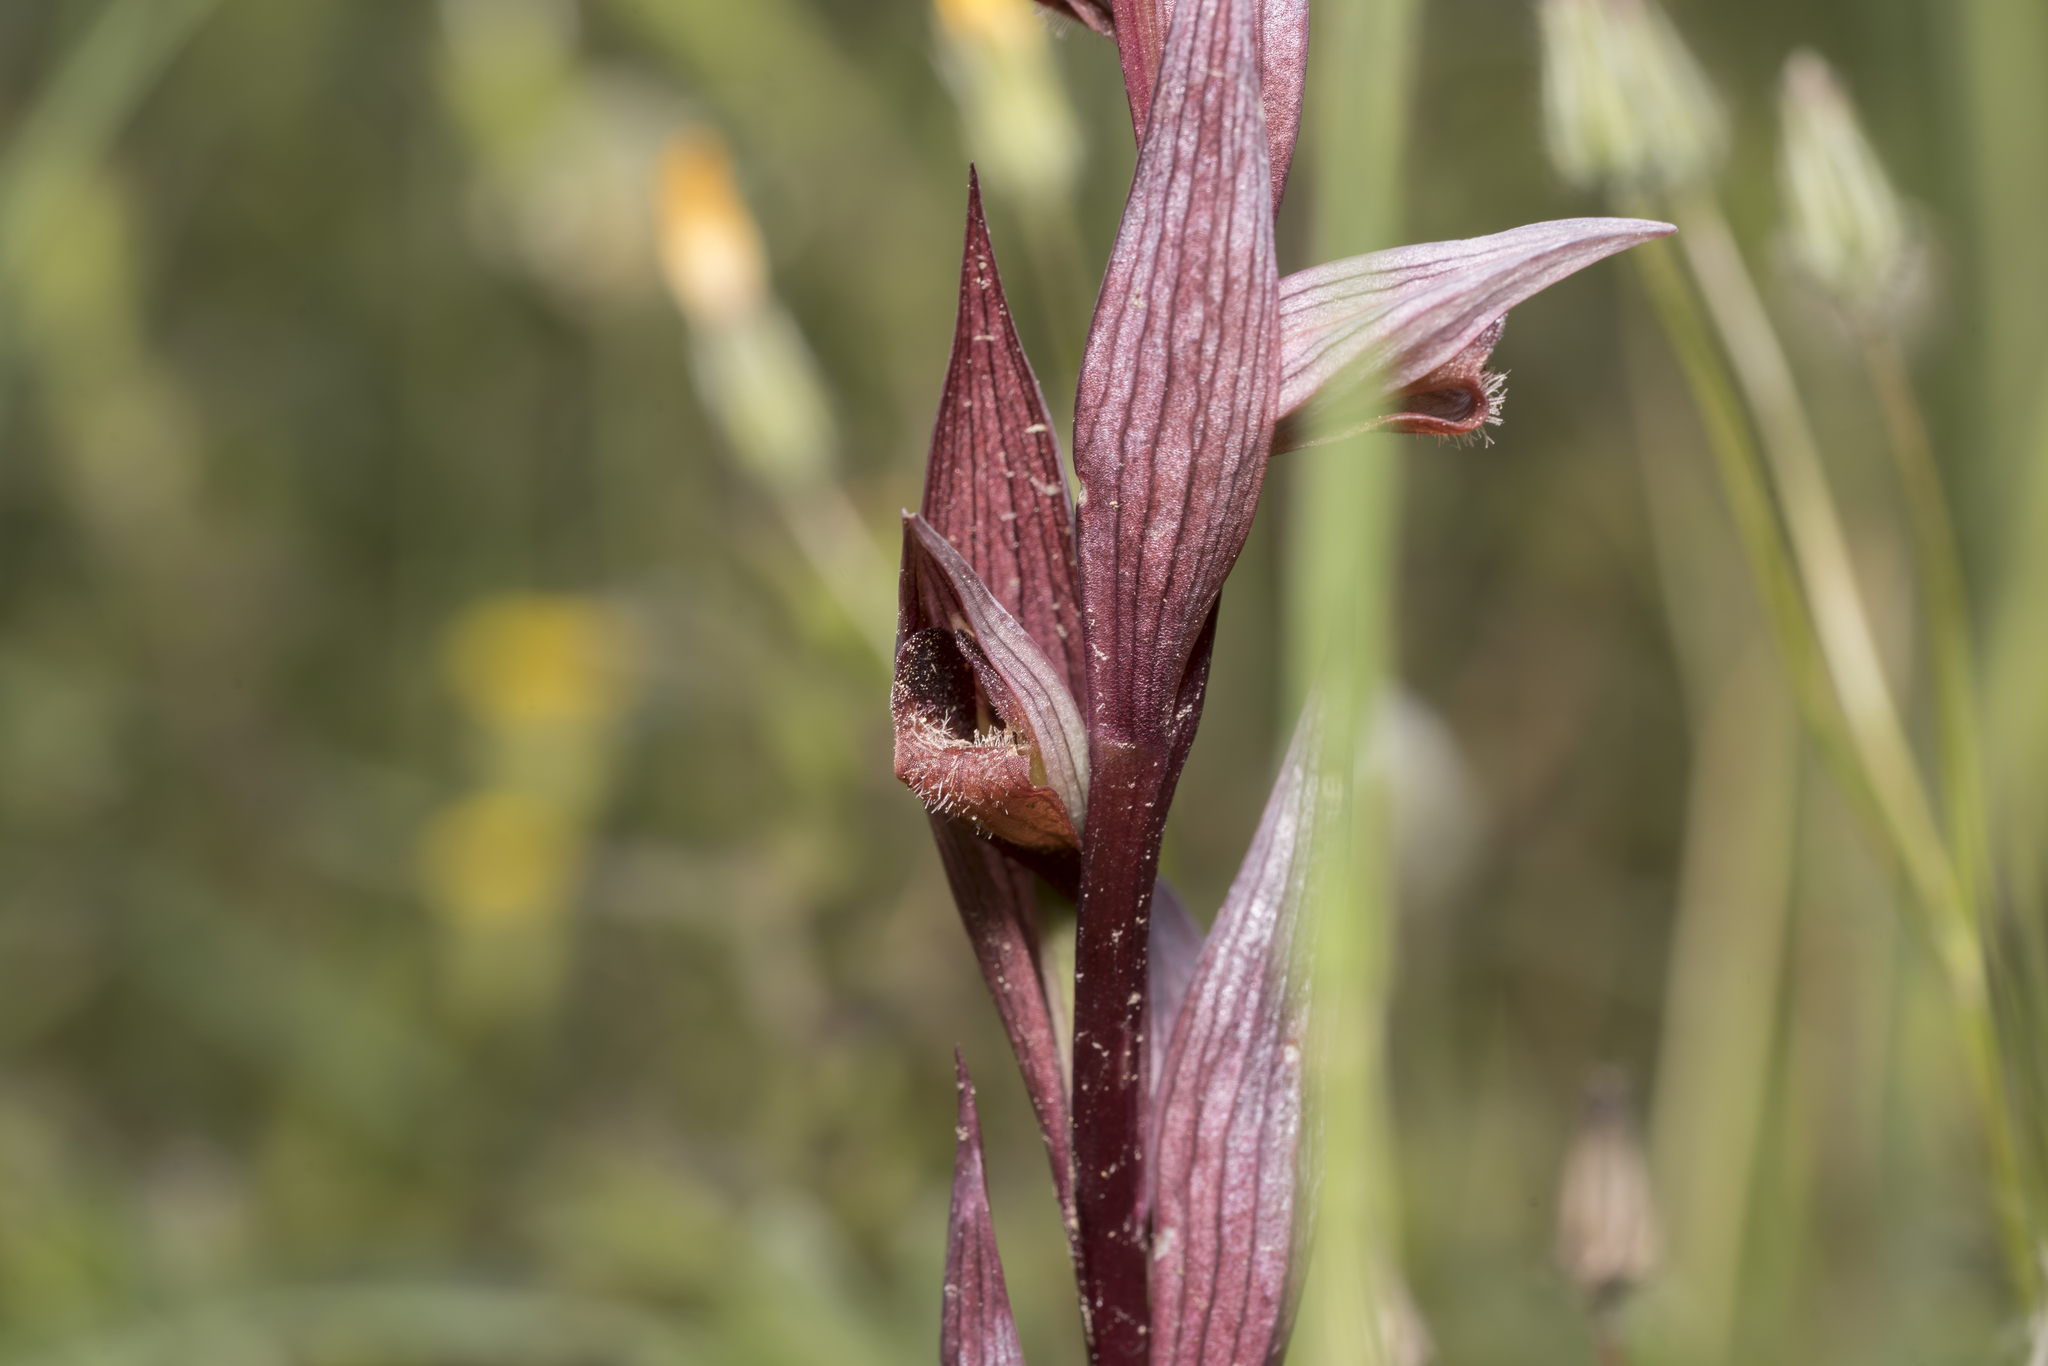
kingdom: Plantae
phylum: Tracheophyta
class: Liliopsida
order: Asparagales
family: Orchidaceae
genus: Serapias
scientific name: Serapias bergonii
